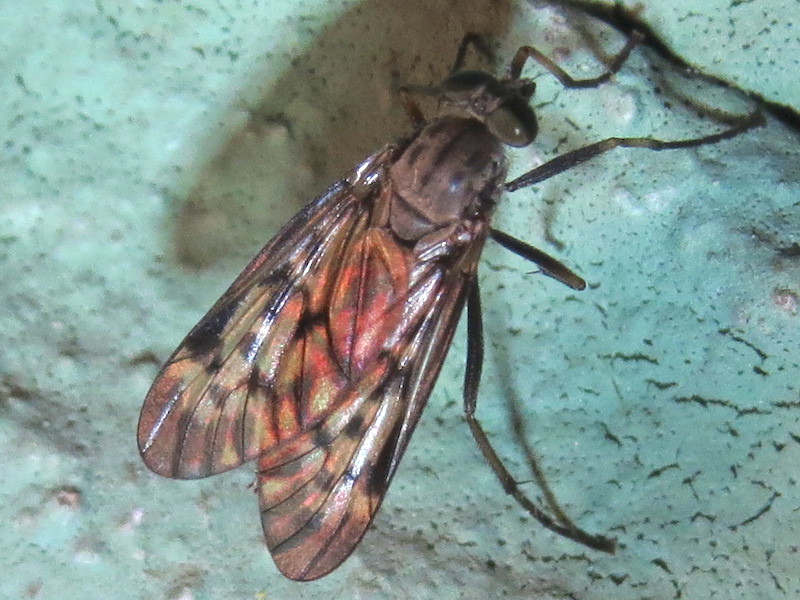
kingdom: Animalia
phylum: Arthropoda
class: Insecta
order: Diptera
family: Rhagionidae
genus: Rhagio
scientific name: Rhagio punctipennis
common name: Lesser variegated snipe fly
